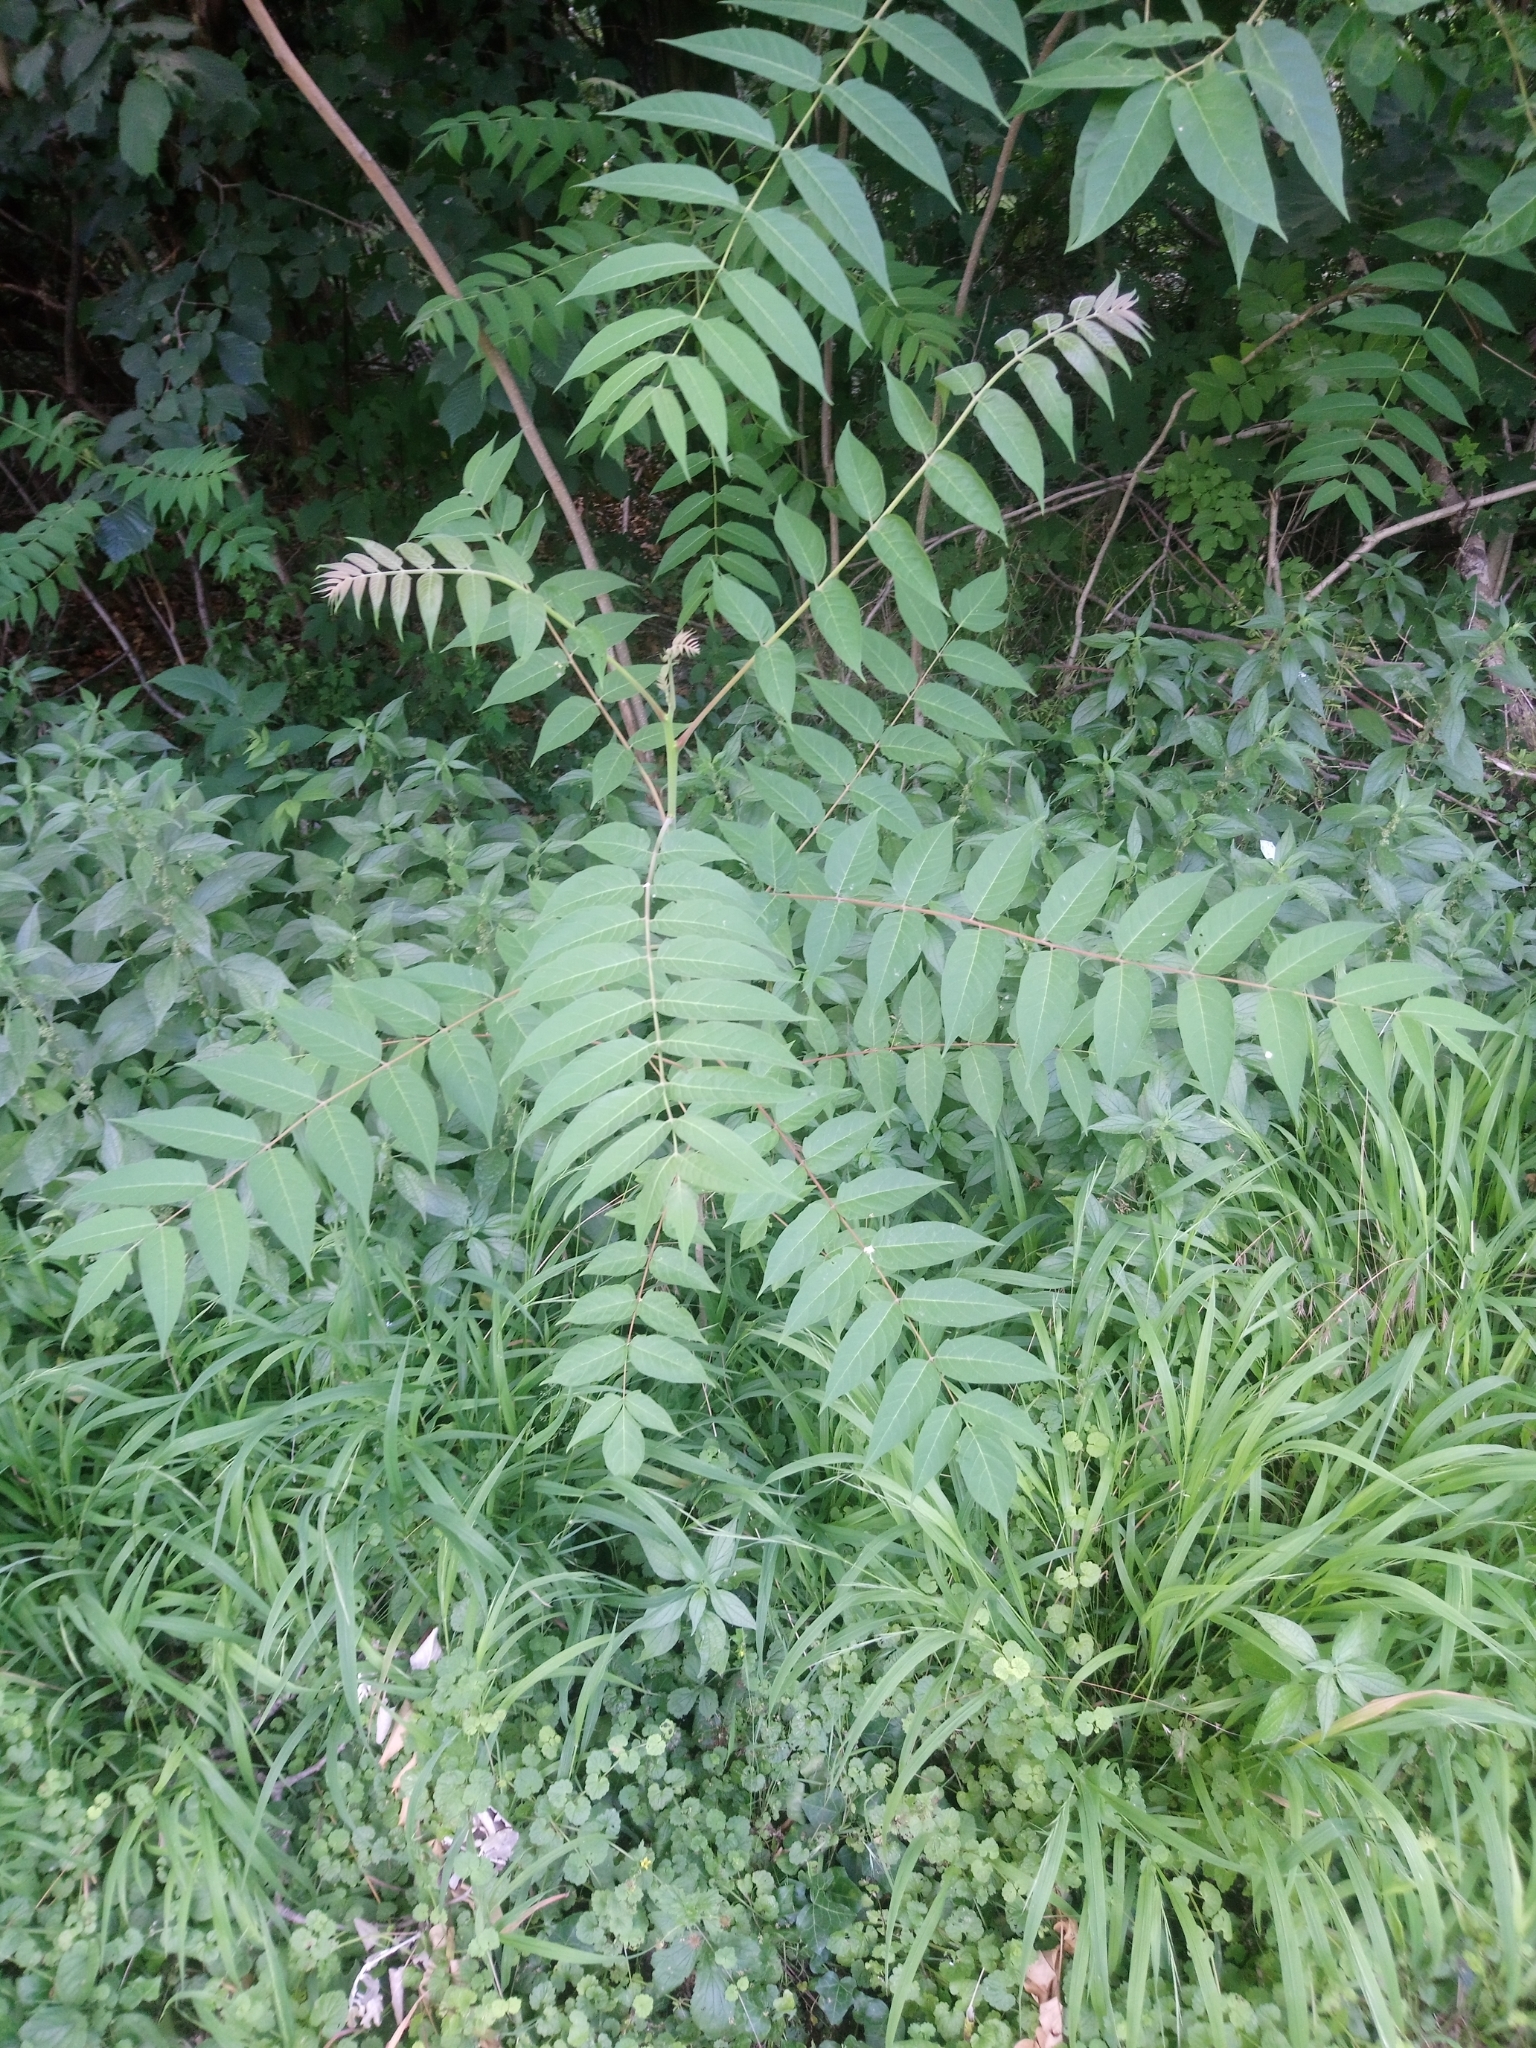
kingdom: Plantae
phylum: Tracheophyta
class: Magnoliopsida
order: Sapindales
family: Simaroubaceae
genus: Ailanthus
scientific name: Ailanthus altissima
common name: Tree-of-heaven
